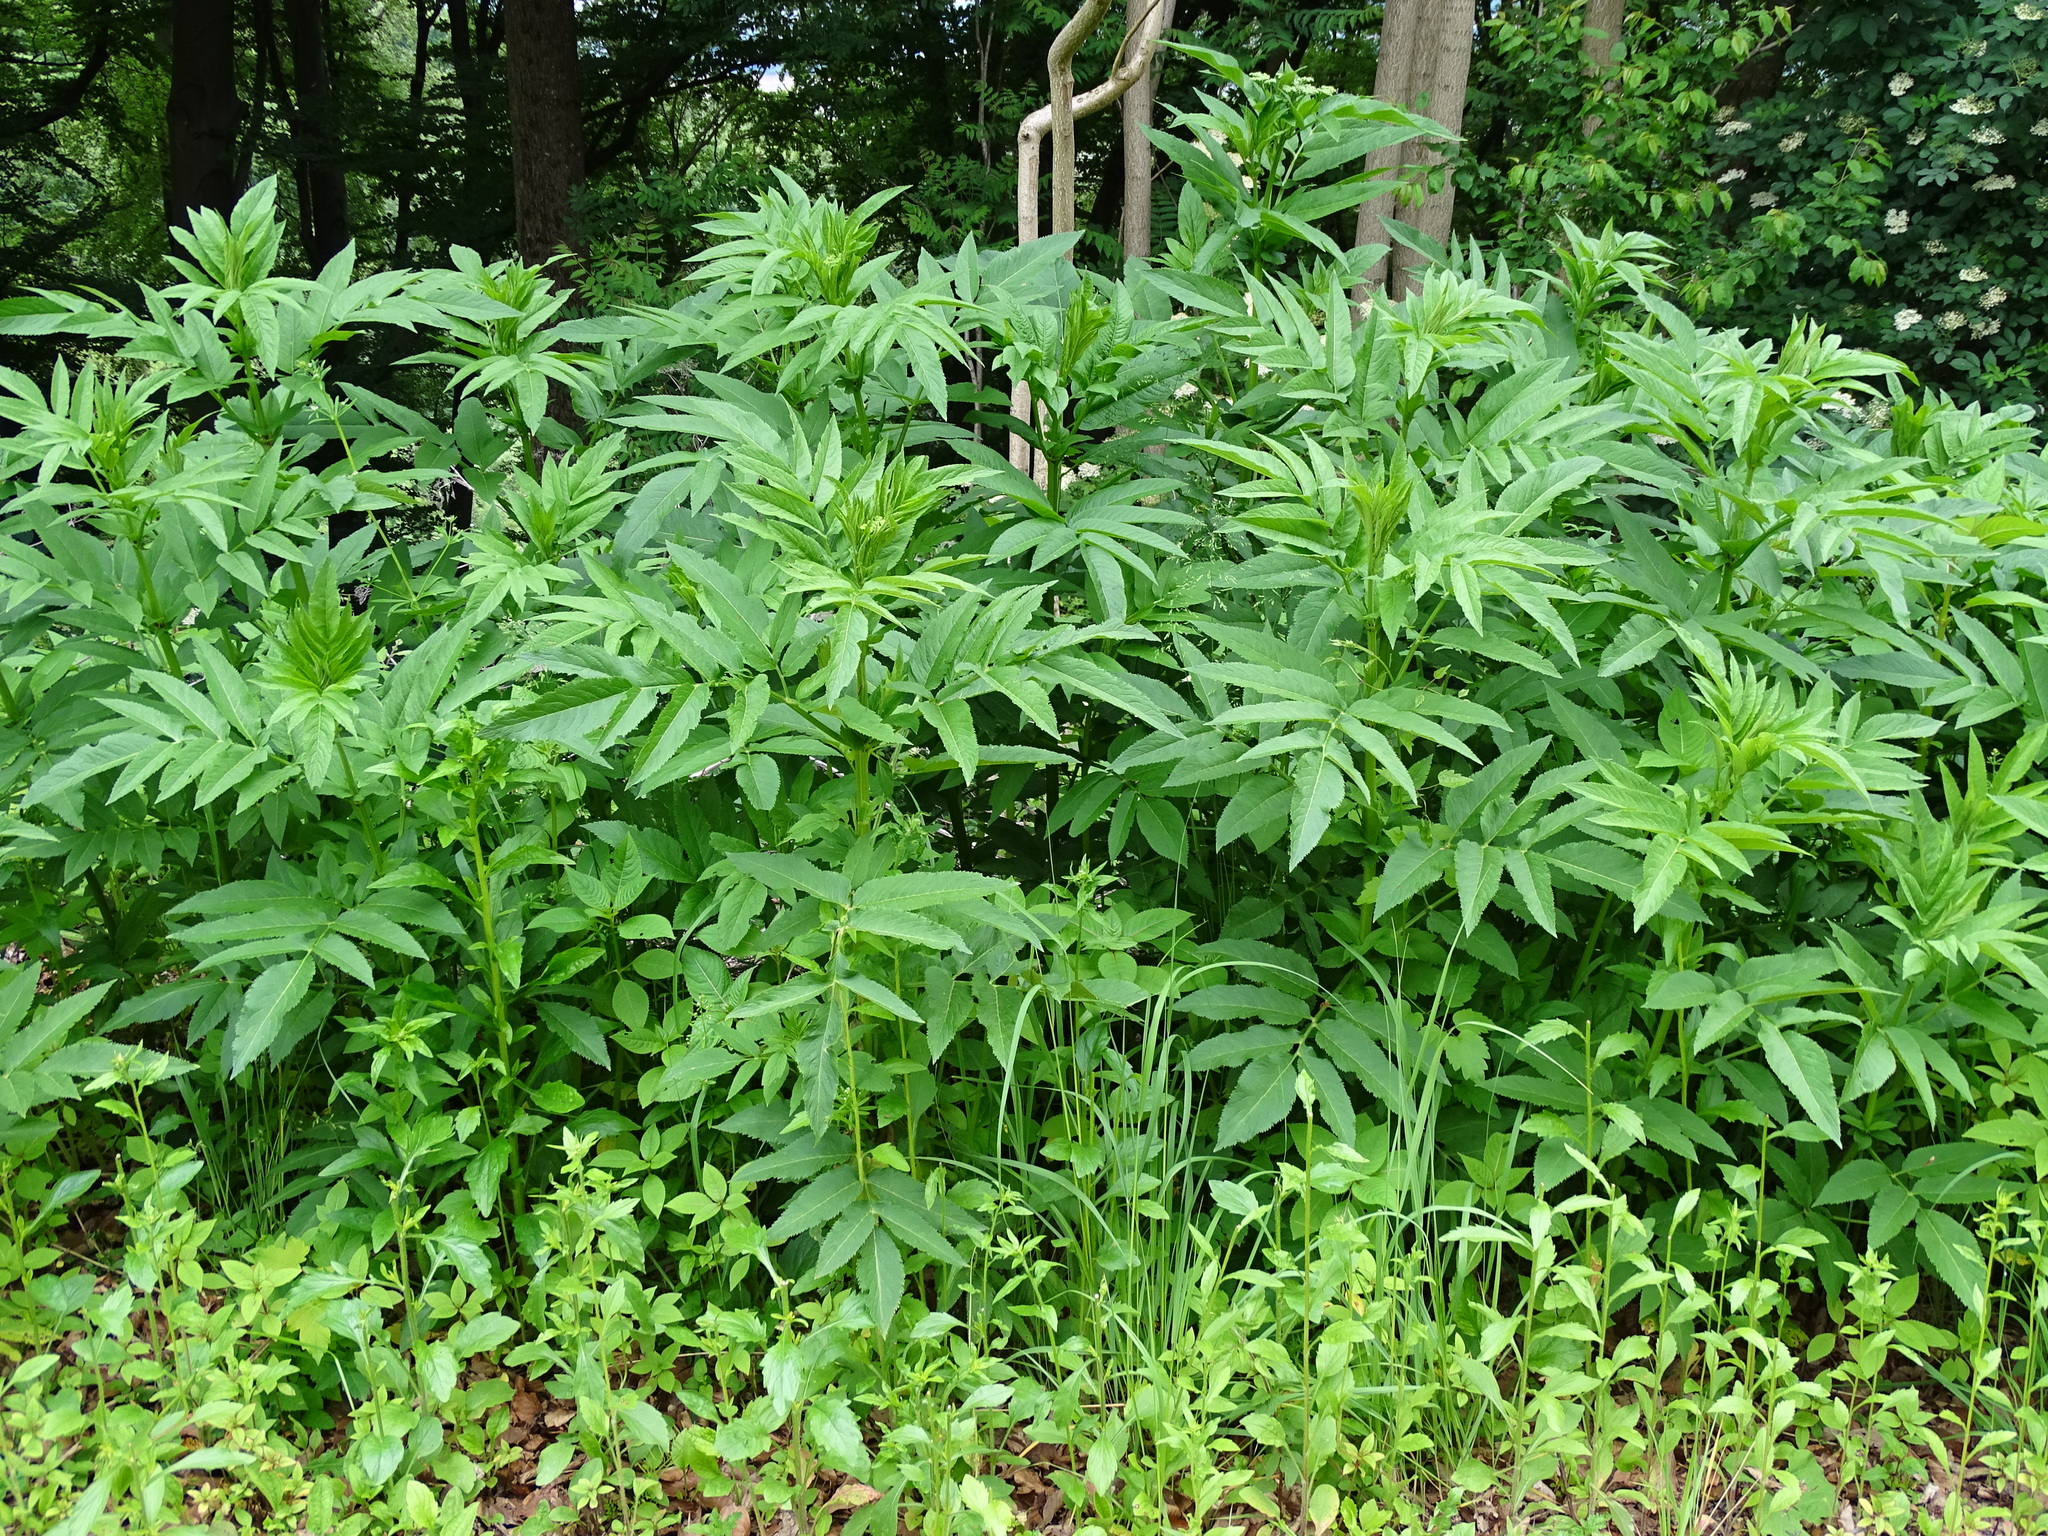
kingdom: Plantae
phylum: Tracheophyta
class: Magnoliopsida
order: Dipsacales
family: Viburnaceae
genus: Sambucus
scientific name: Sambucus ebulus
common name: Dwarf elder
